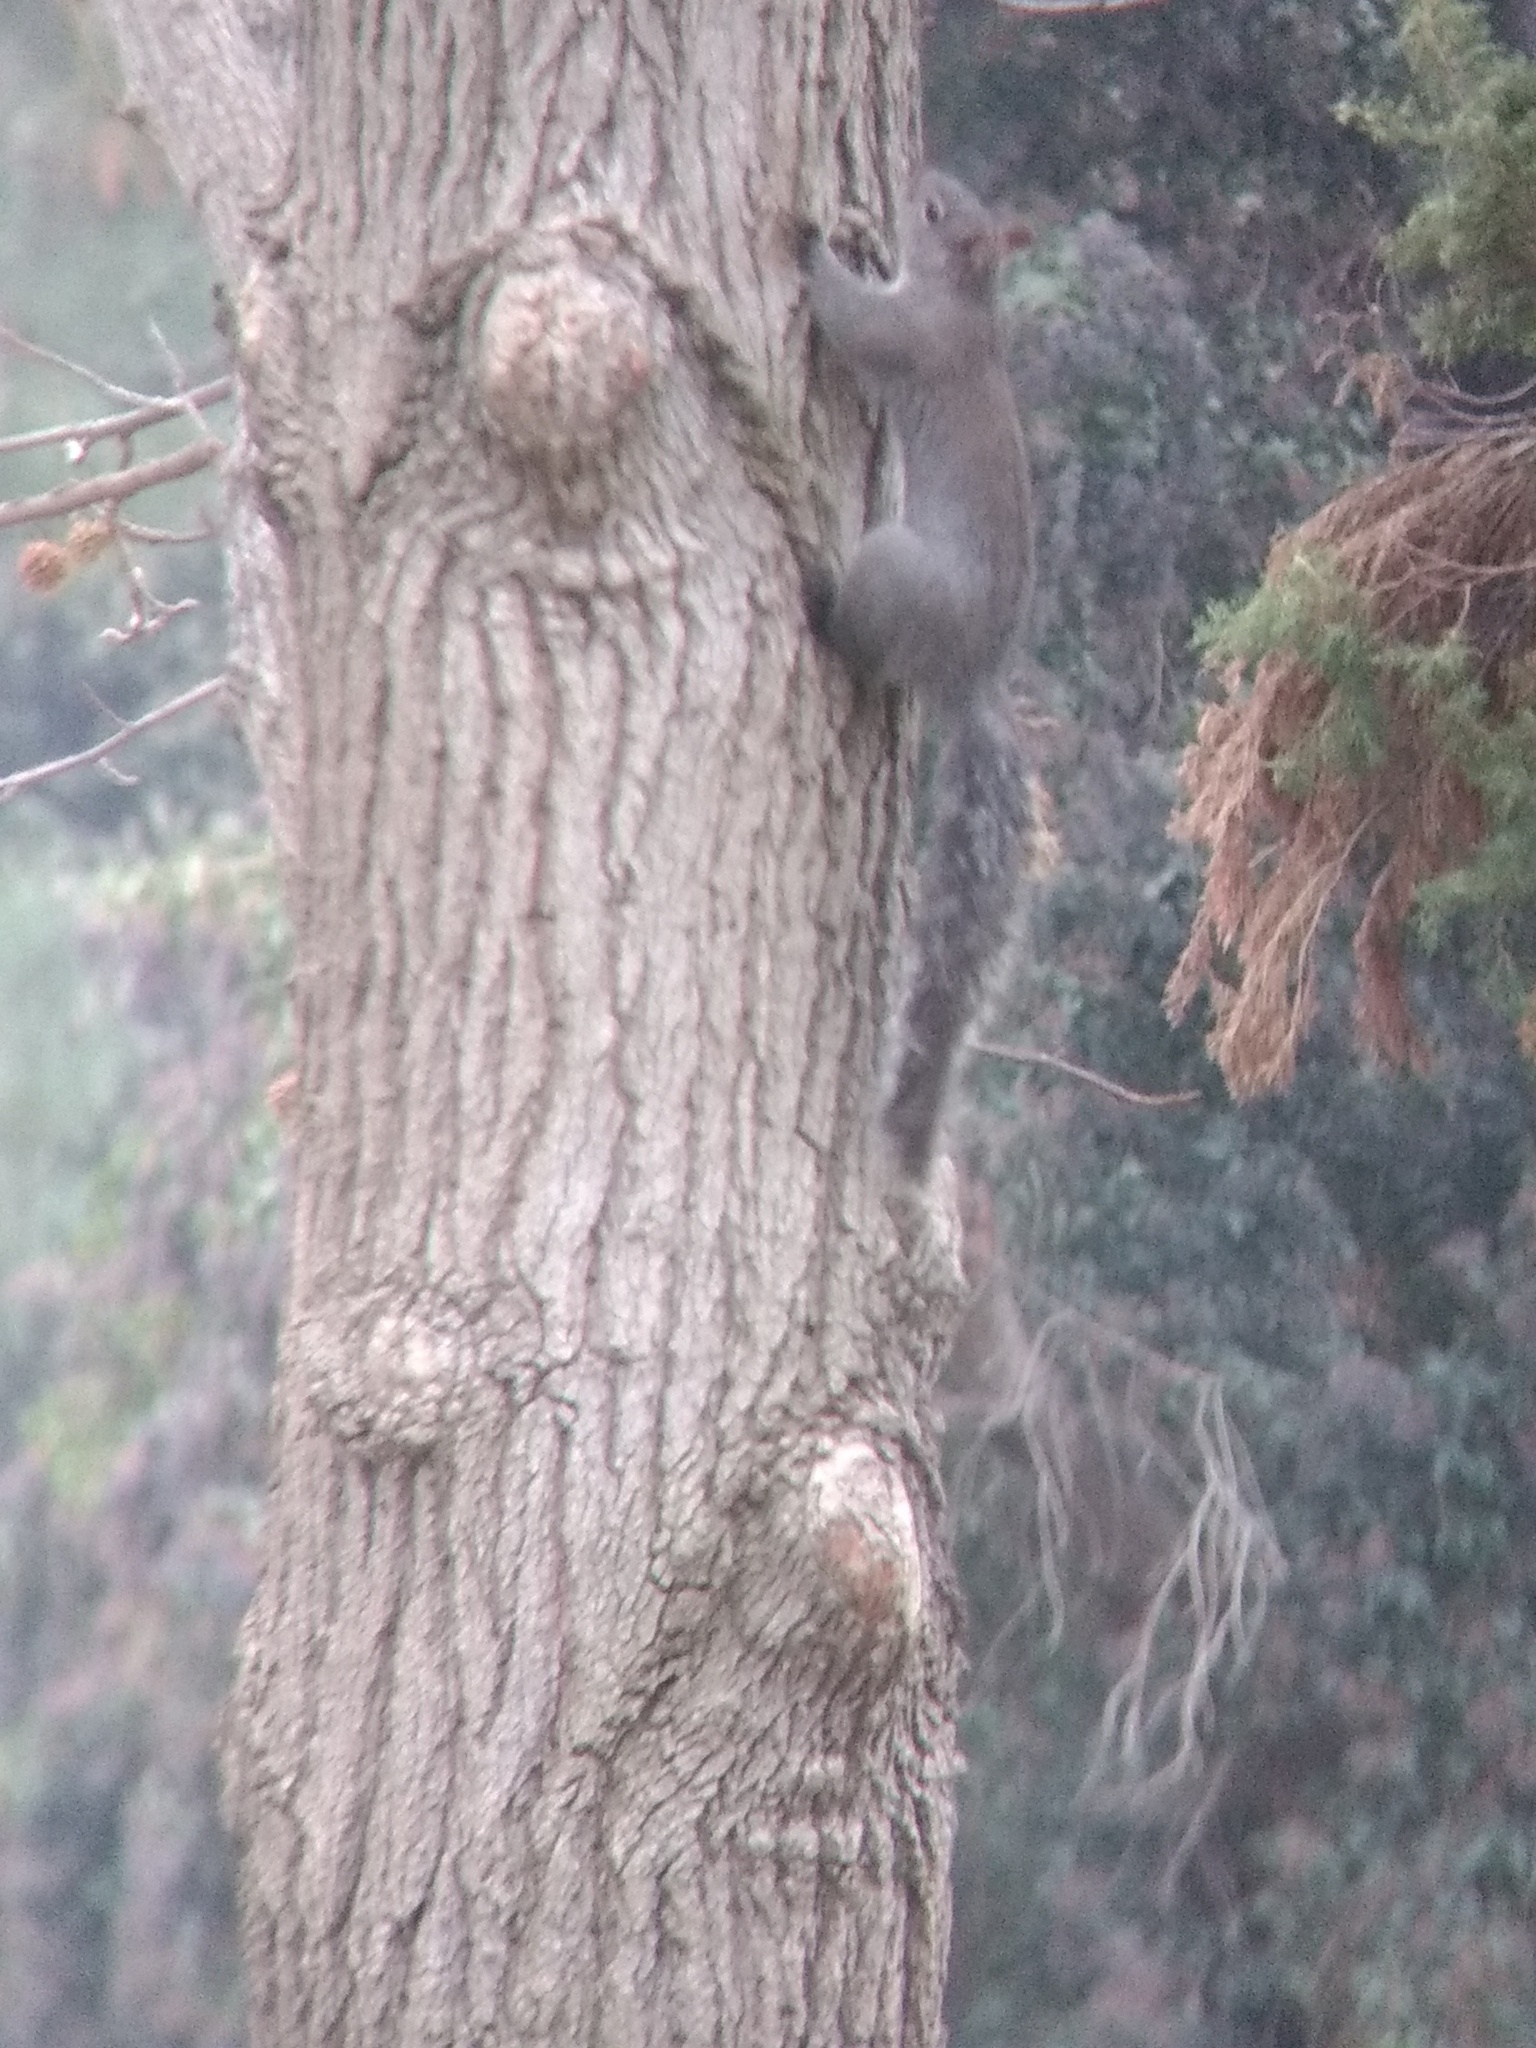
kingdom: Animalia
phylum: Chordata
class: Mammalia
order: Rodentia
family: Sciuridae
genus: Sciurus
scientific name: Sciurus griseus
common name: Western gray squirrel
